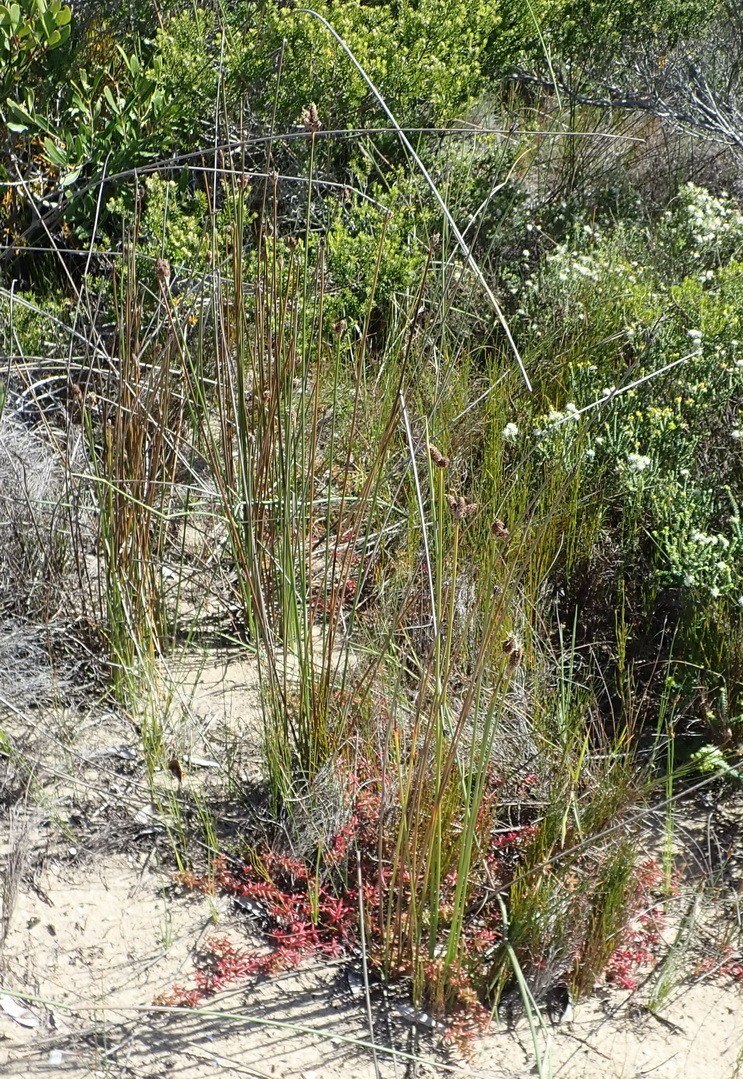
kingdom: Plantae
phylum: Tracheophyta
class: Liliopsida
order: Poales
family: Cyperaceae
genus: Hellmuthia
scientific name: Hellmuthia membranacea
